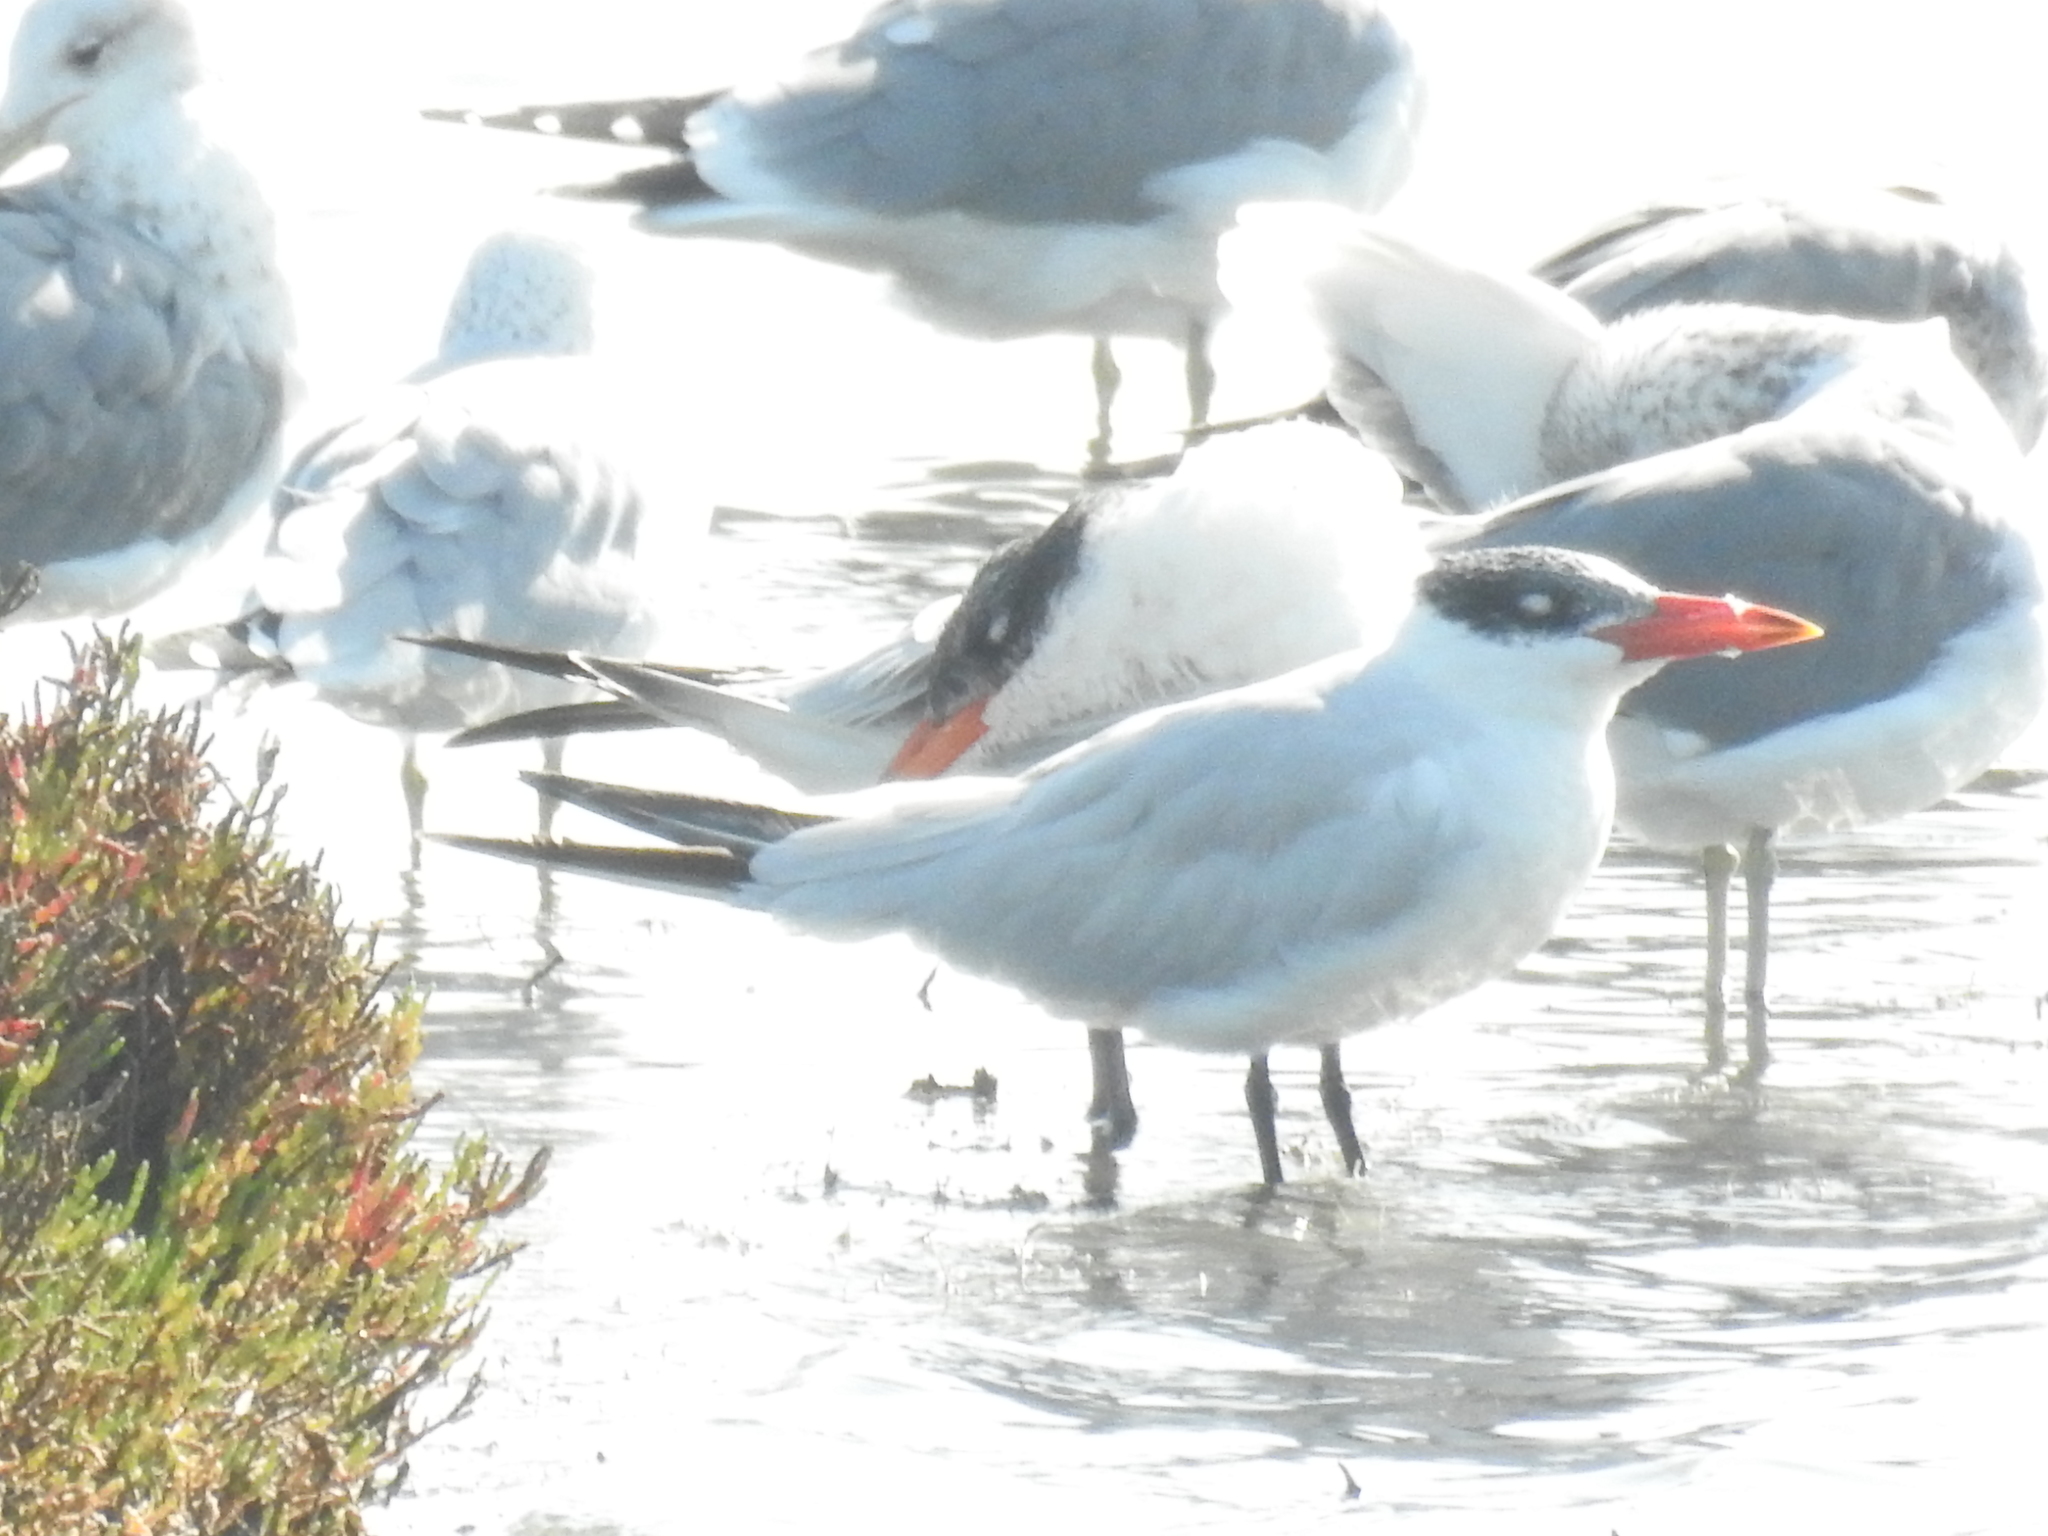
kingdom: Animalia
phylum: Chordata
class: Aves
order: Charadriiformes
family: Laridae
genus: Hydroprogne
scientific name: Hydroprogne caspia
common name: Caspian tern
